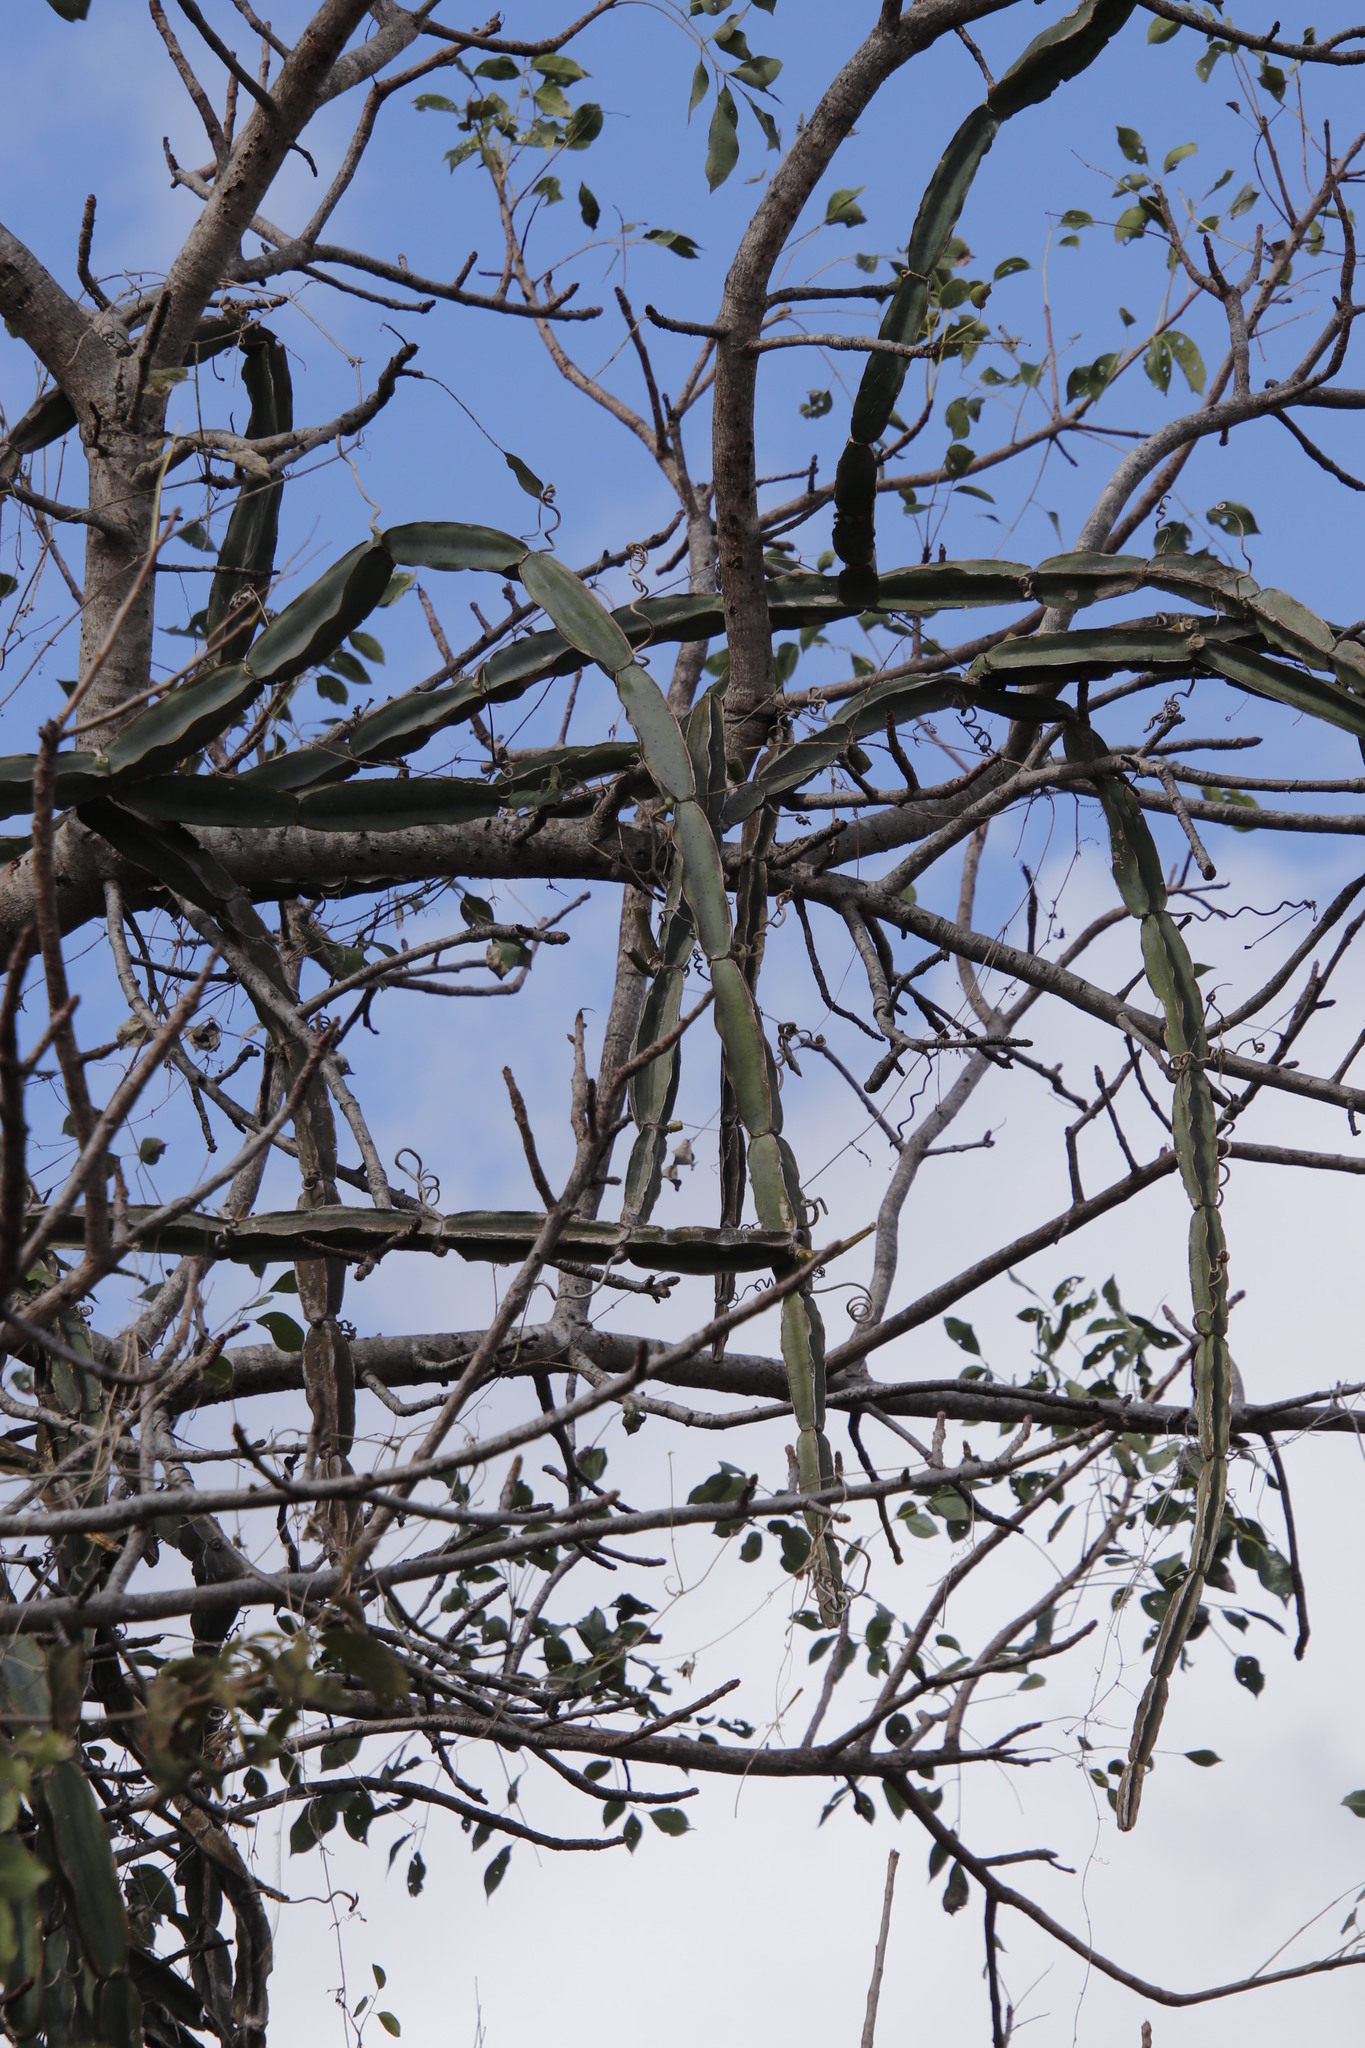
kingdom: Plantae
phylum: Tracheophyta
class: Magnoliopsida
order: Vitales
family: Vitaceae
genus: Cissus
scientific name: Cissus quadrangularis
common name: Veldt-grape
